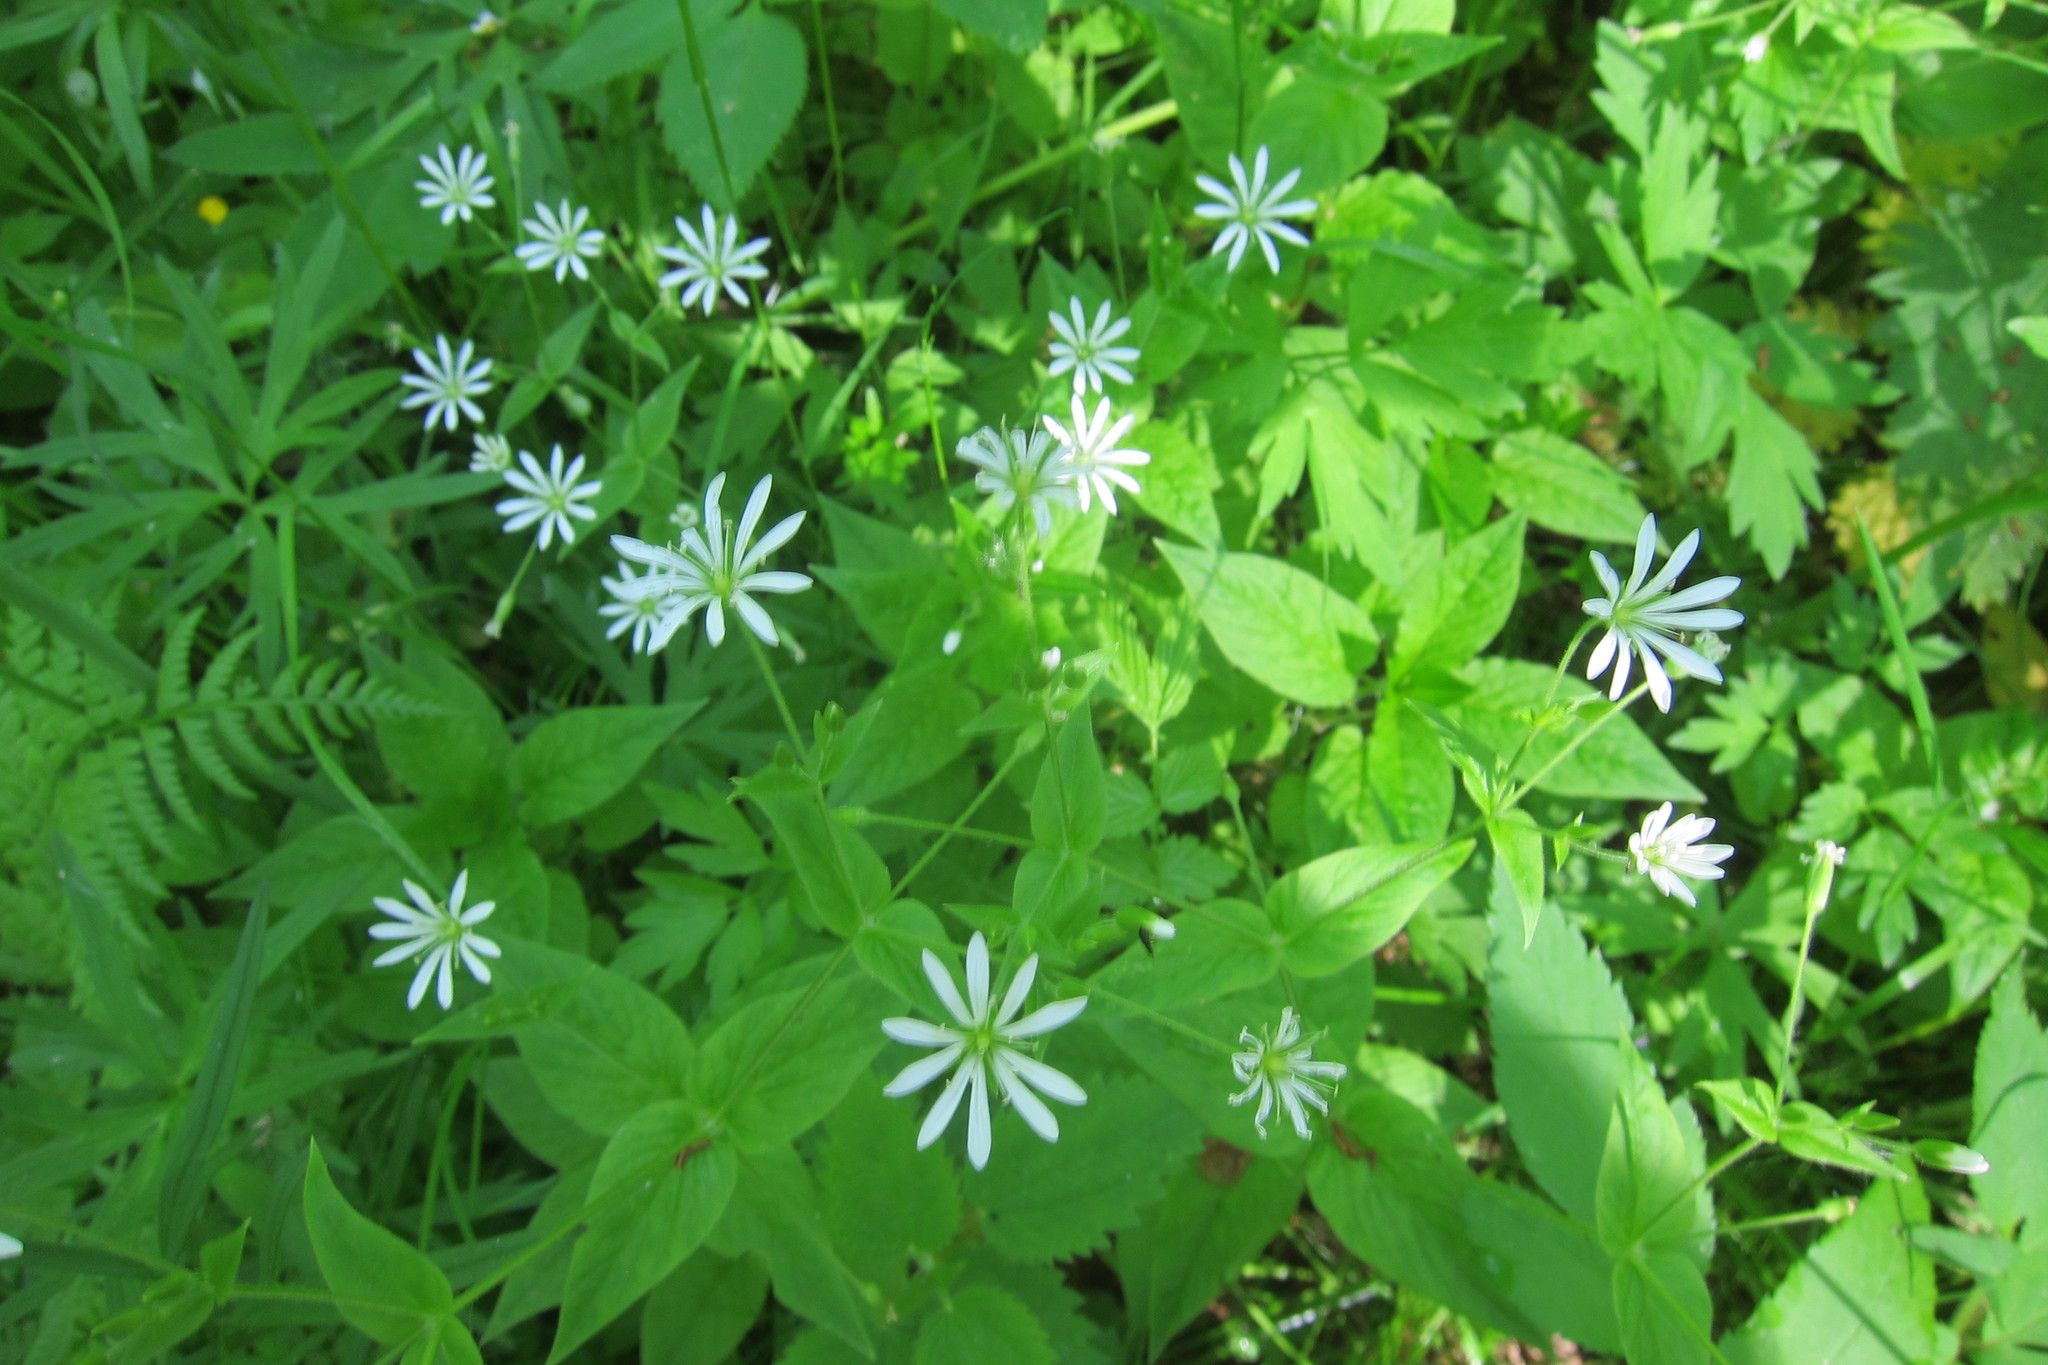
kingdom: Plantae
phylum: Tracheophyta
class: Magnoliopsida
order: Caryophyllales
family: Caryophyllaceae
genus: Stellaria
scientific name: Stellaria nemorum
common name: Wood stitchwort
